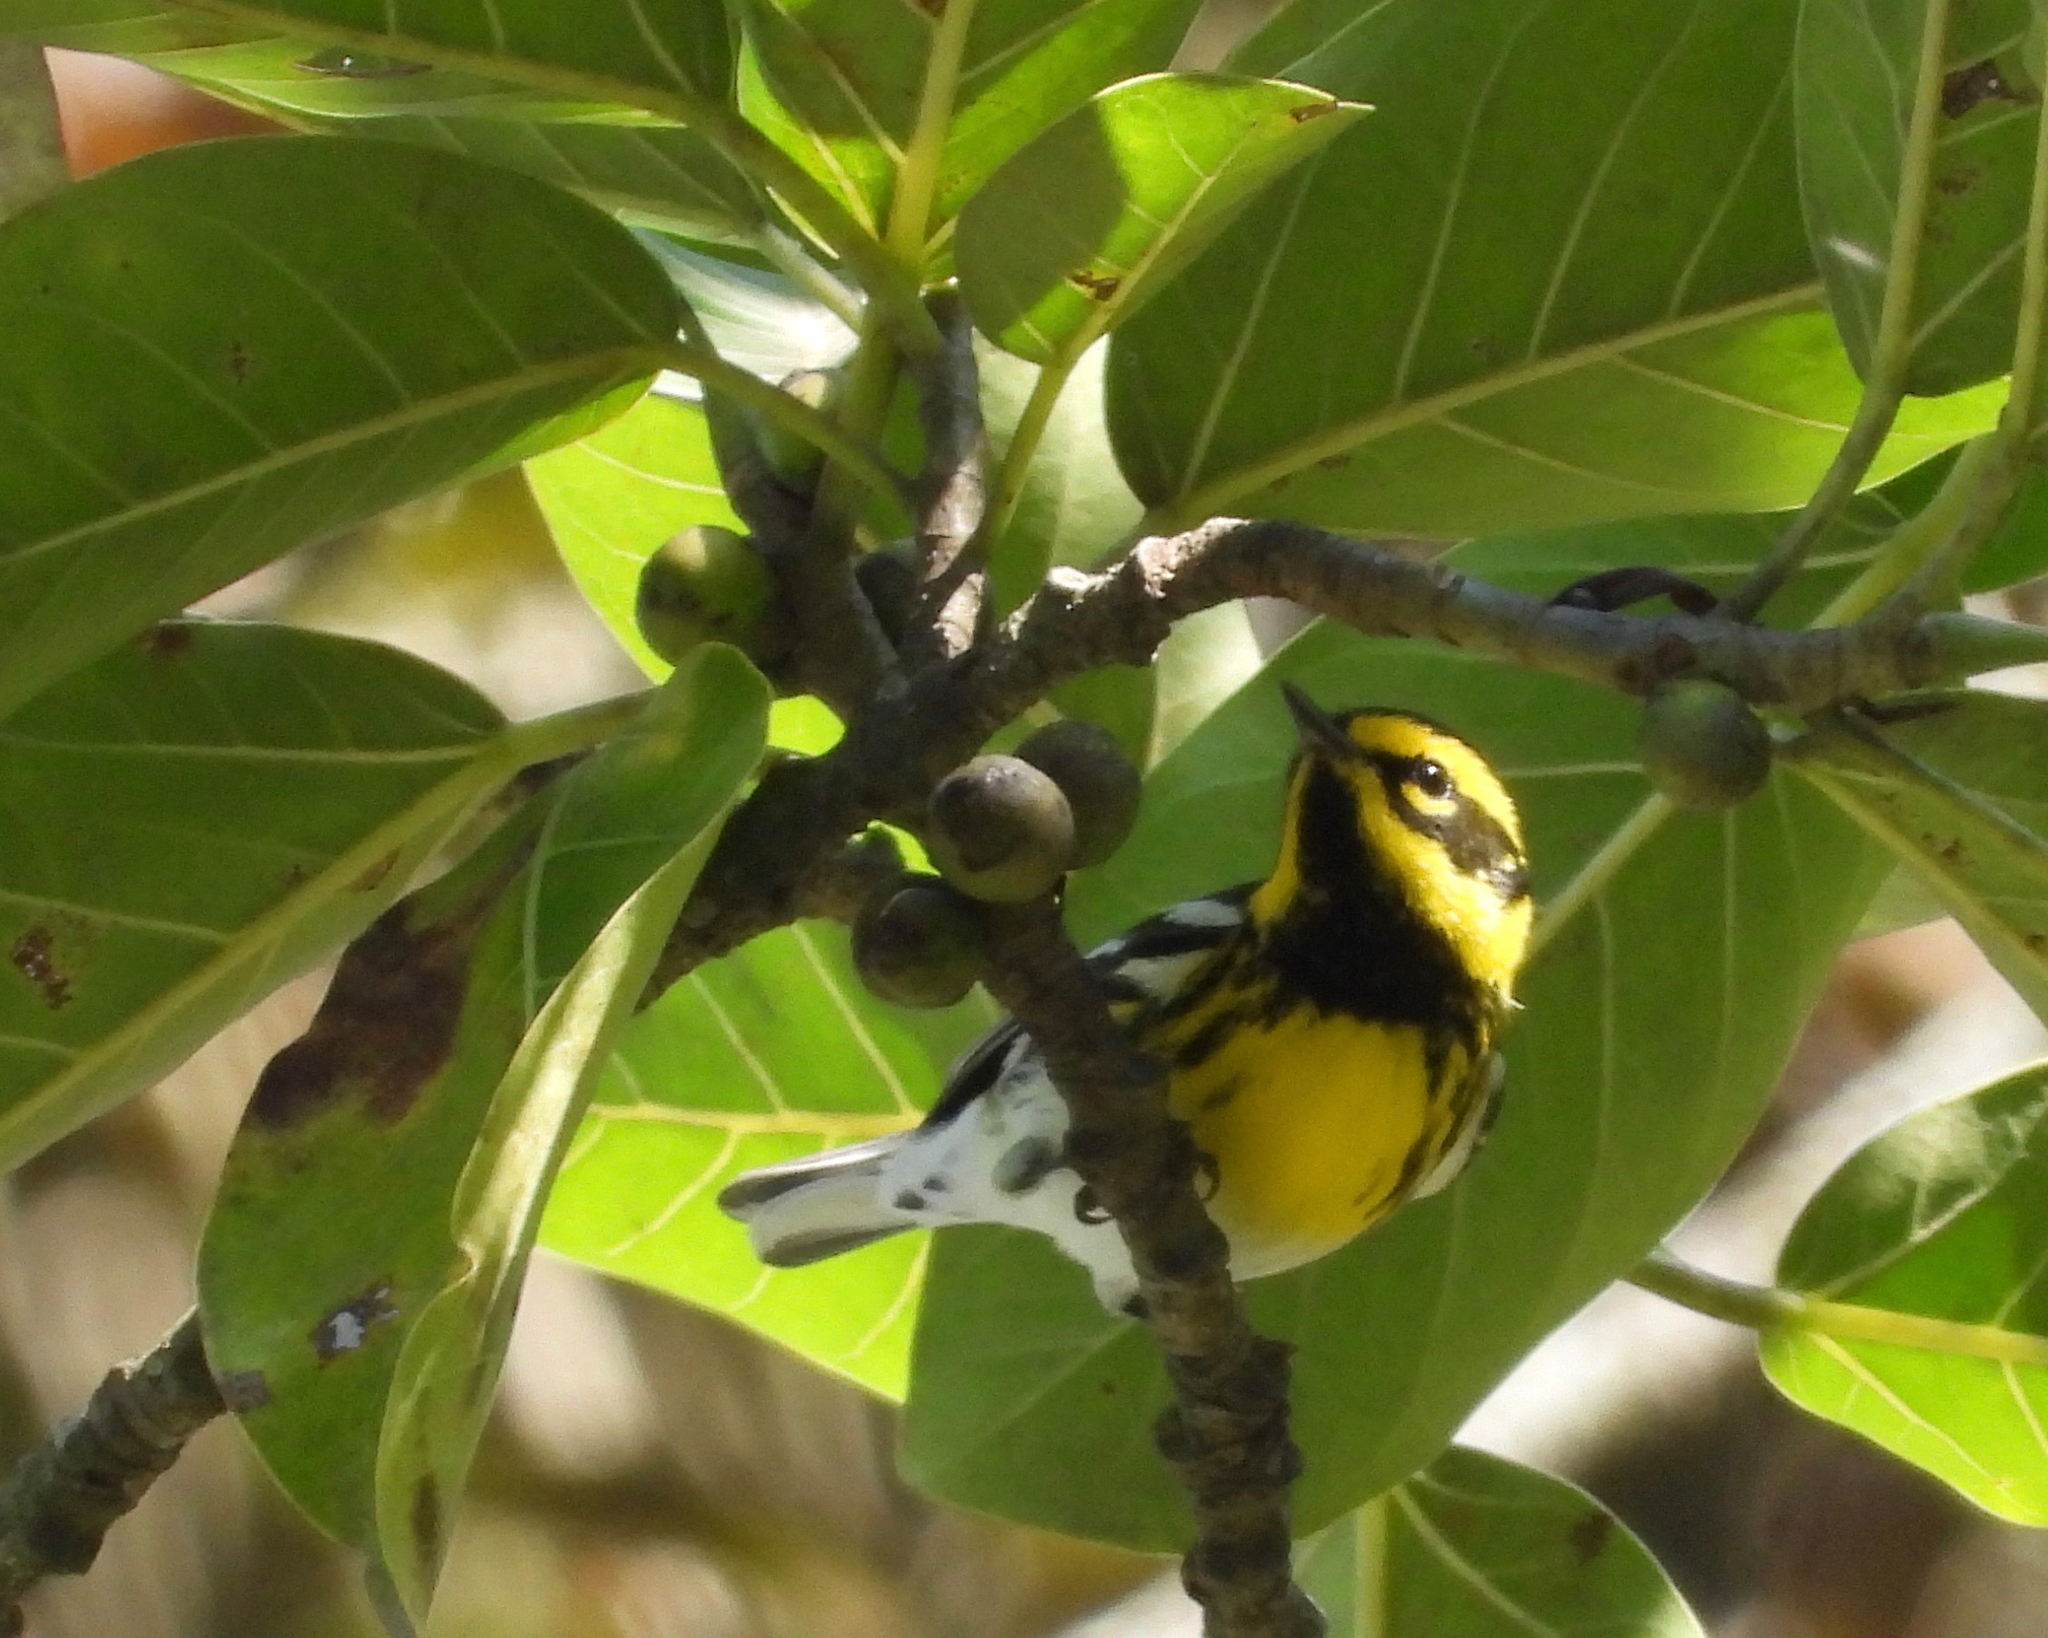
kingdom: Animalia
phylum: Chordata
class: Aves
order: Passeriformes
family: Parulidae
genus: Setophaga
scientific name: Setophaga townsendi
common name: Townsend's warbler
